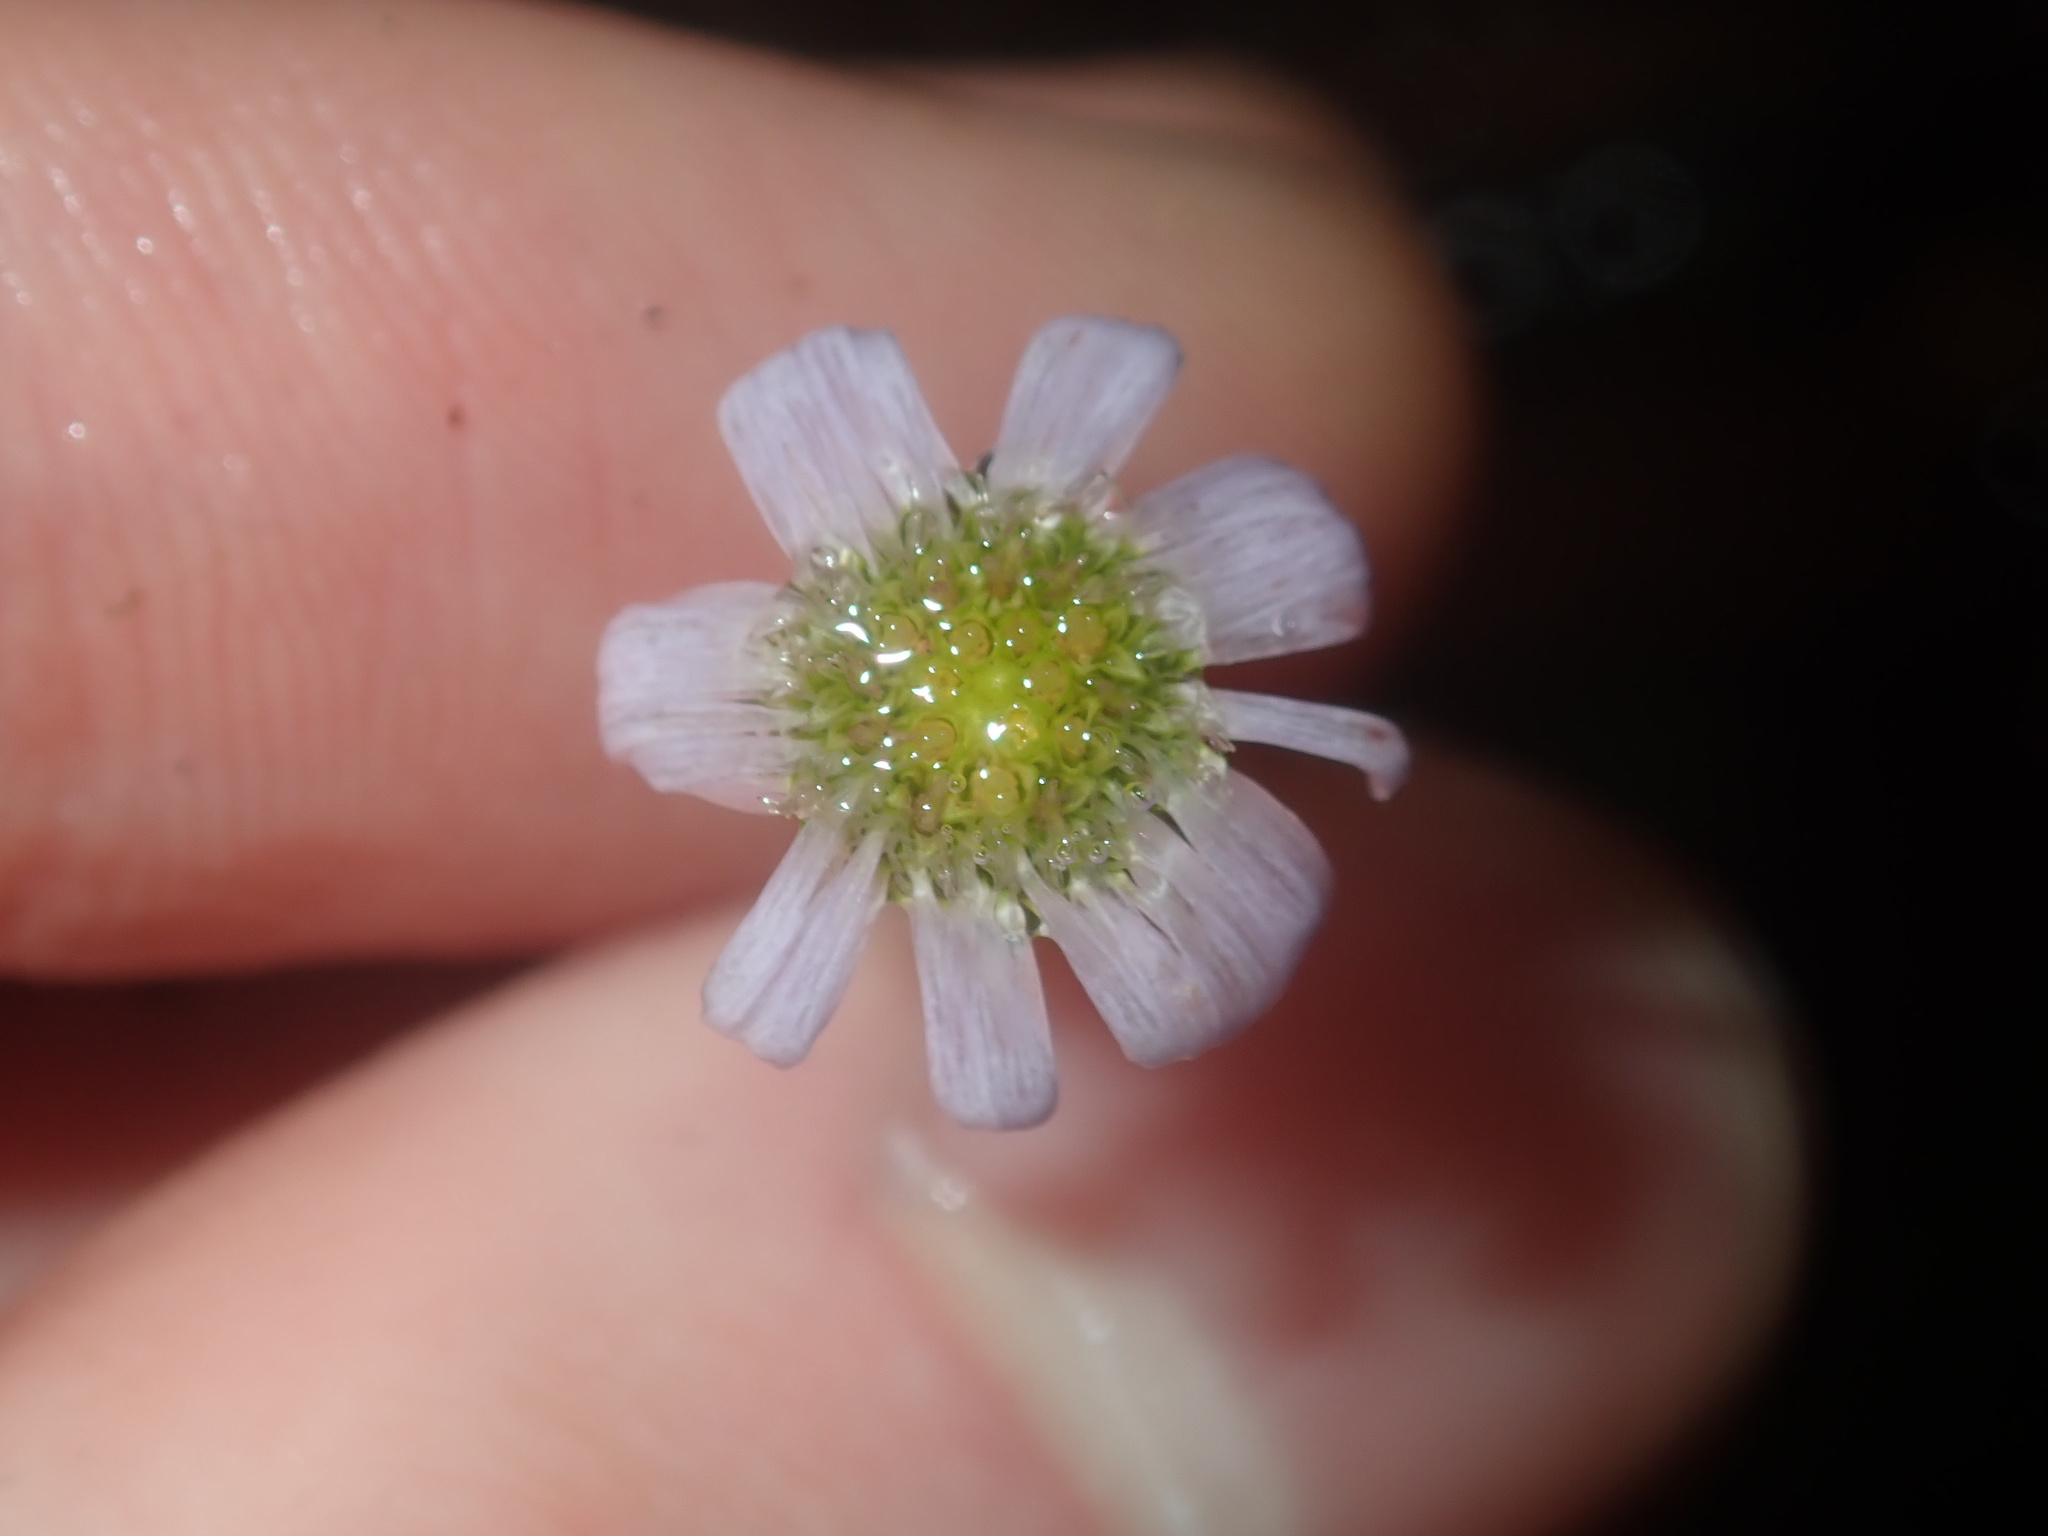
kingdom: Plantae
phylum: Tracheophyta
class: Magnoliopsida
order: Asterales
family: Asteraceae
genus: Lagenophora
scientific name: Lagenophora stipitata
